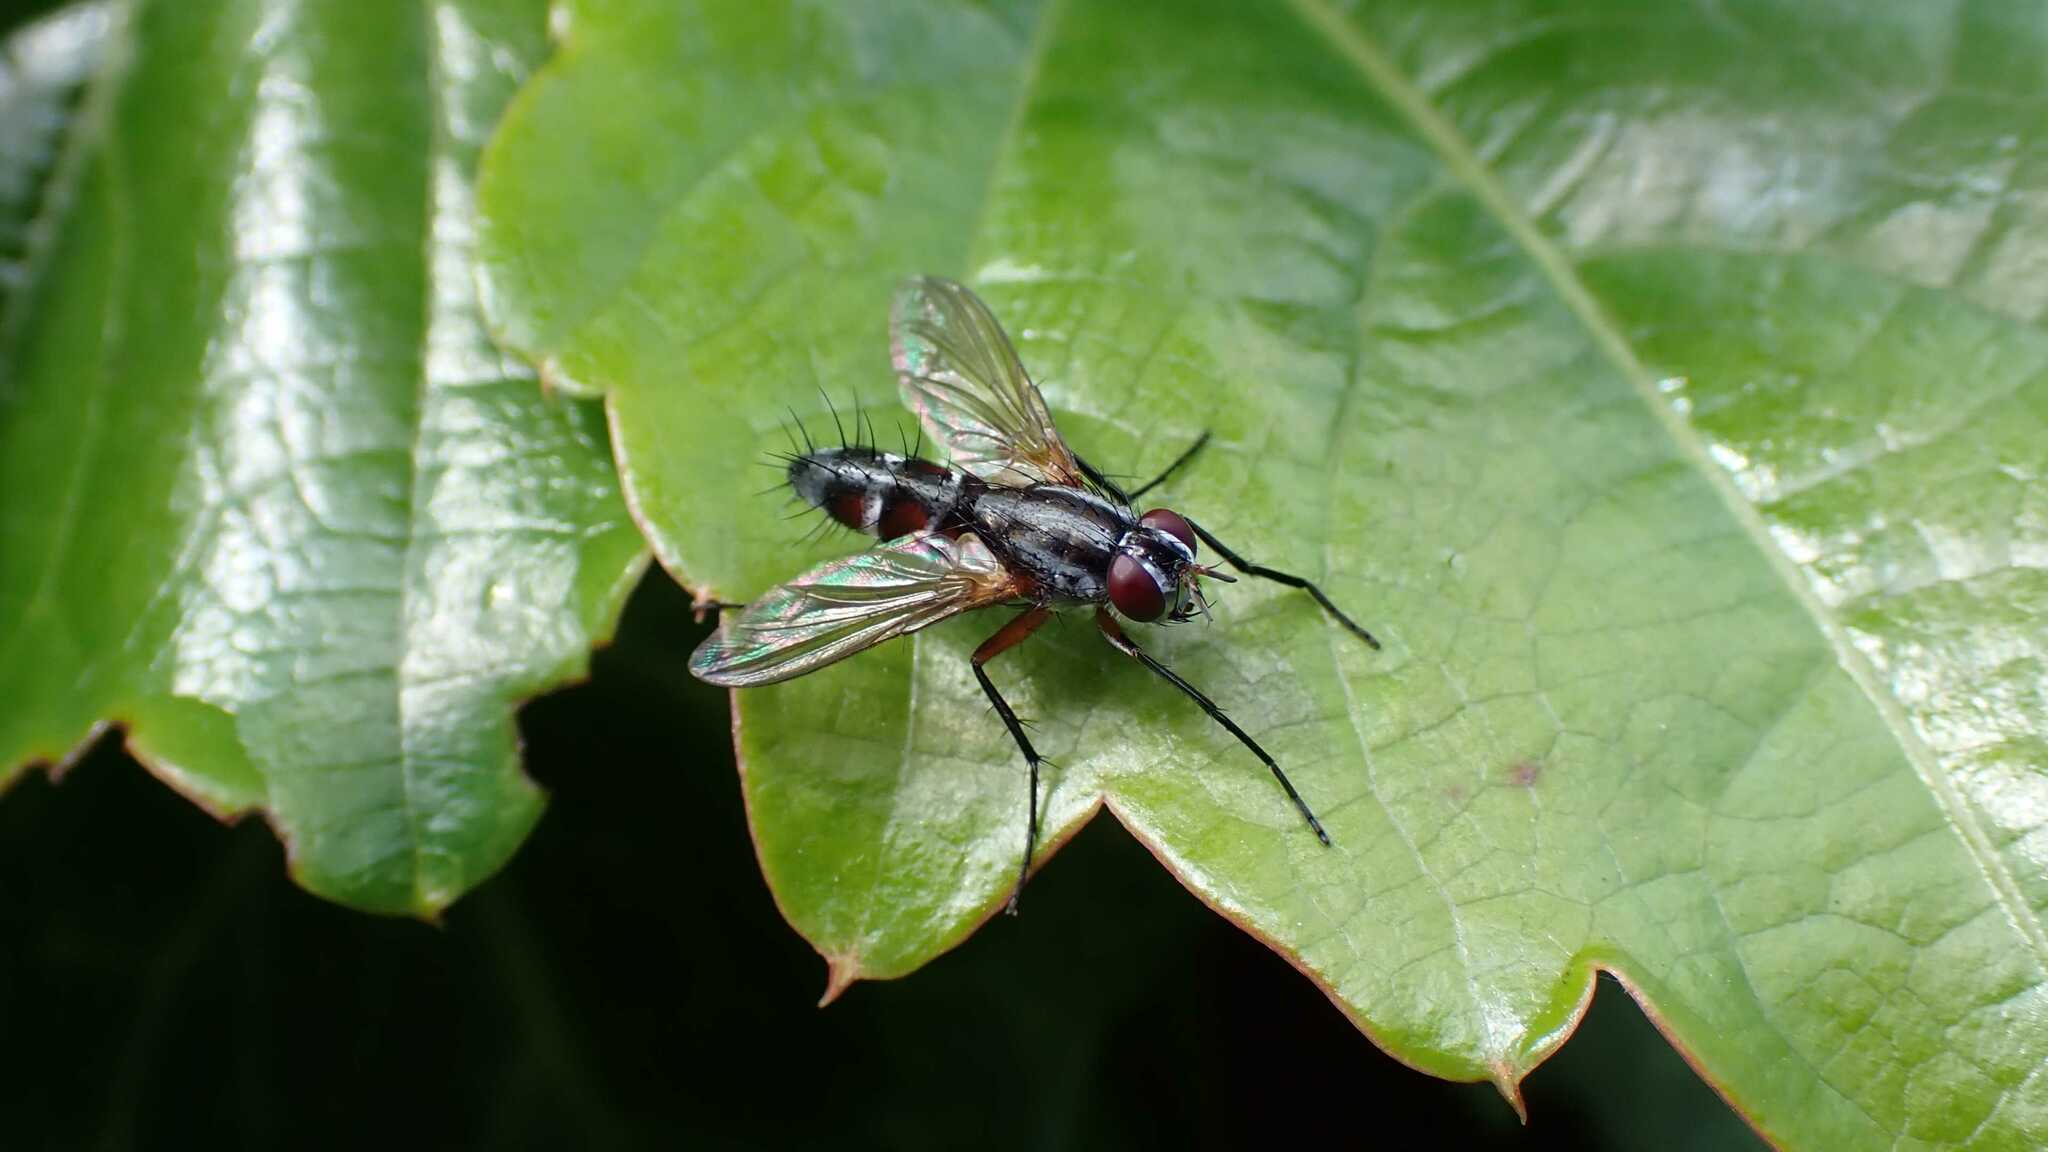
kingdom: Animalia
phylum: Arthropoda
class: Insecta
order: Diptera
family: Tachinidae
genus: Mintho
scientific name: Mintho rufiventris
